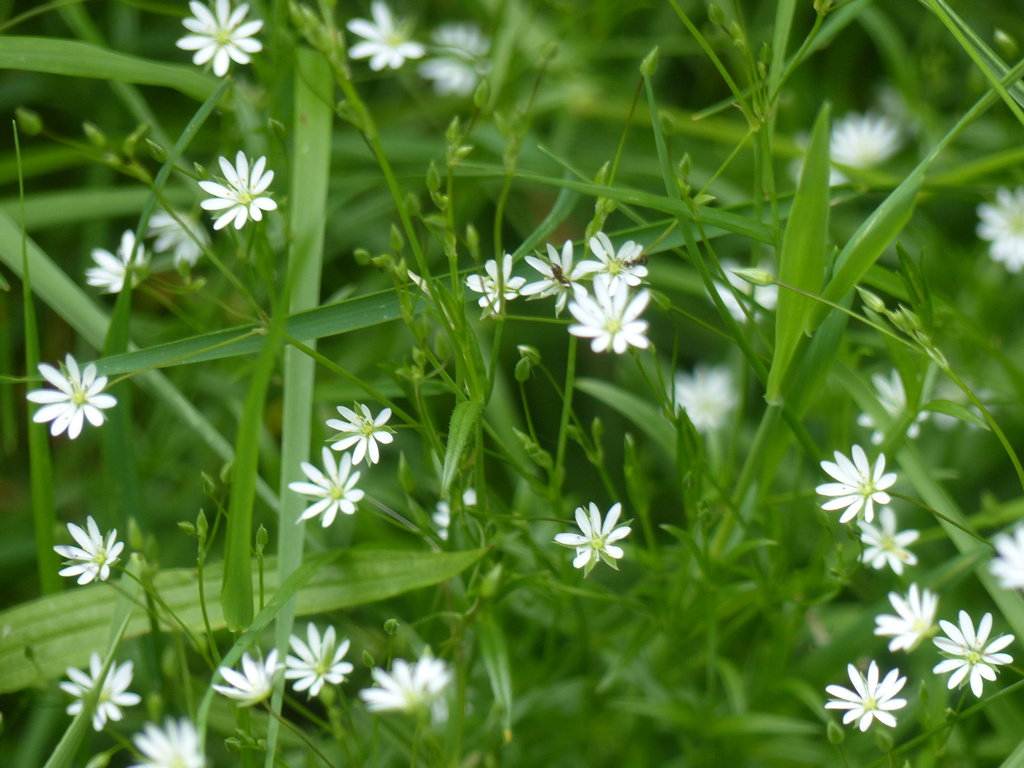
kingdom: Plantae
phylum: Tracheophyta
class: Magnoliopsida
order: Caryophyllales
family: Caryophyllaceae
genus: Stellaria
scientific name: Stellaria graminea
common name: Grass-like starwort
